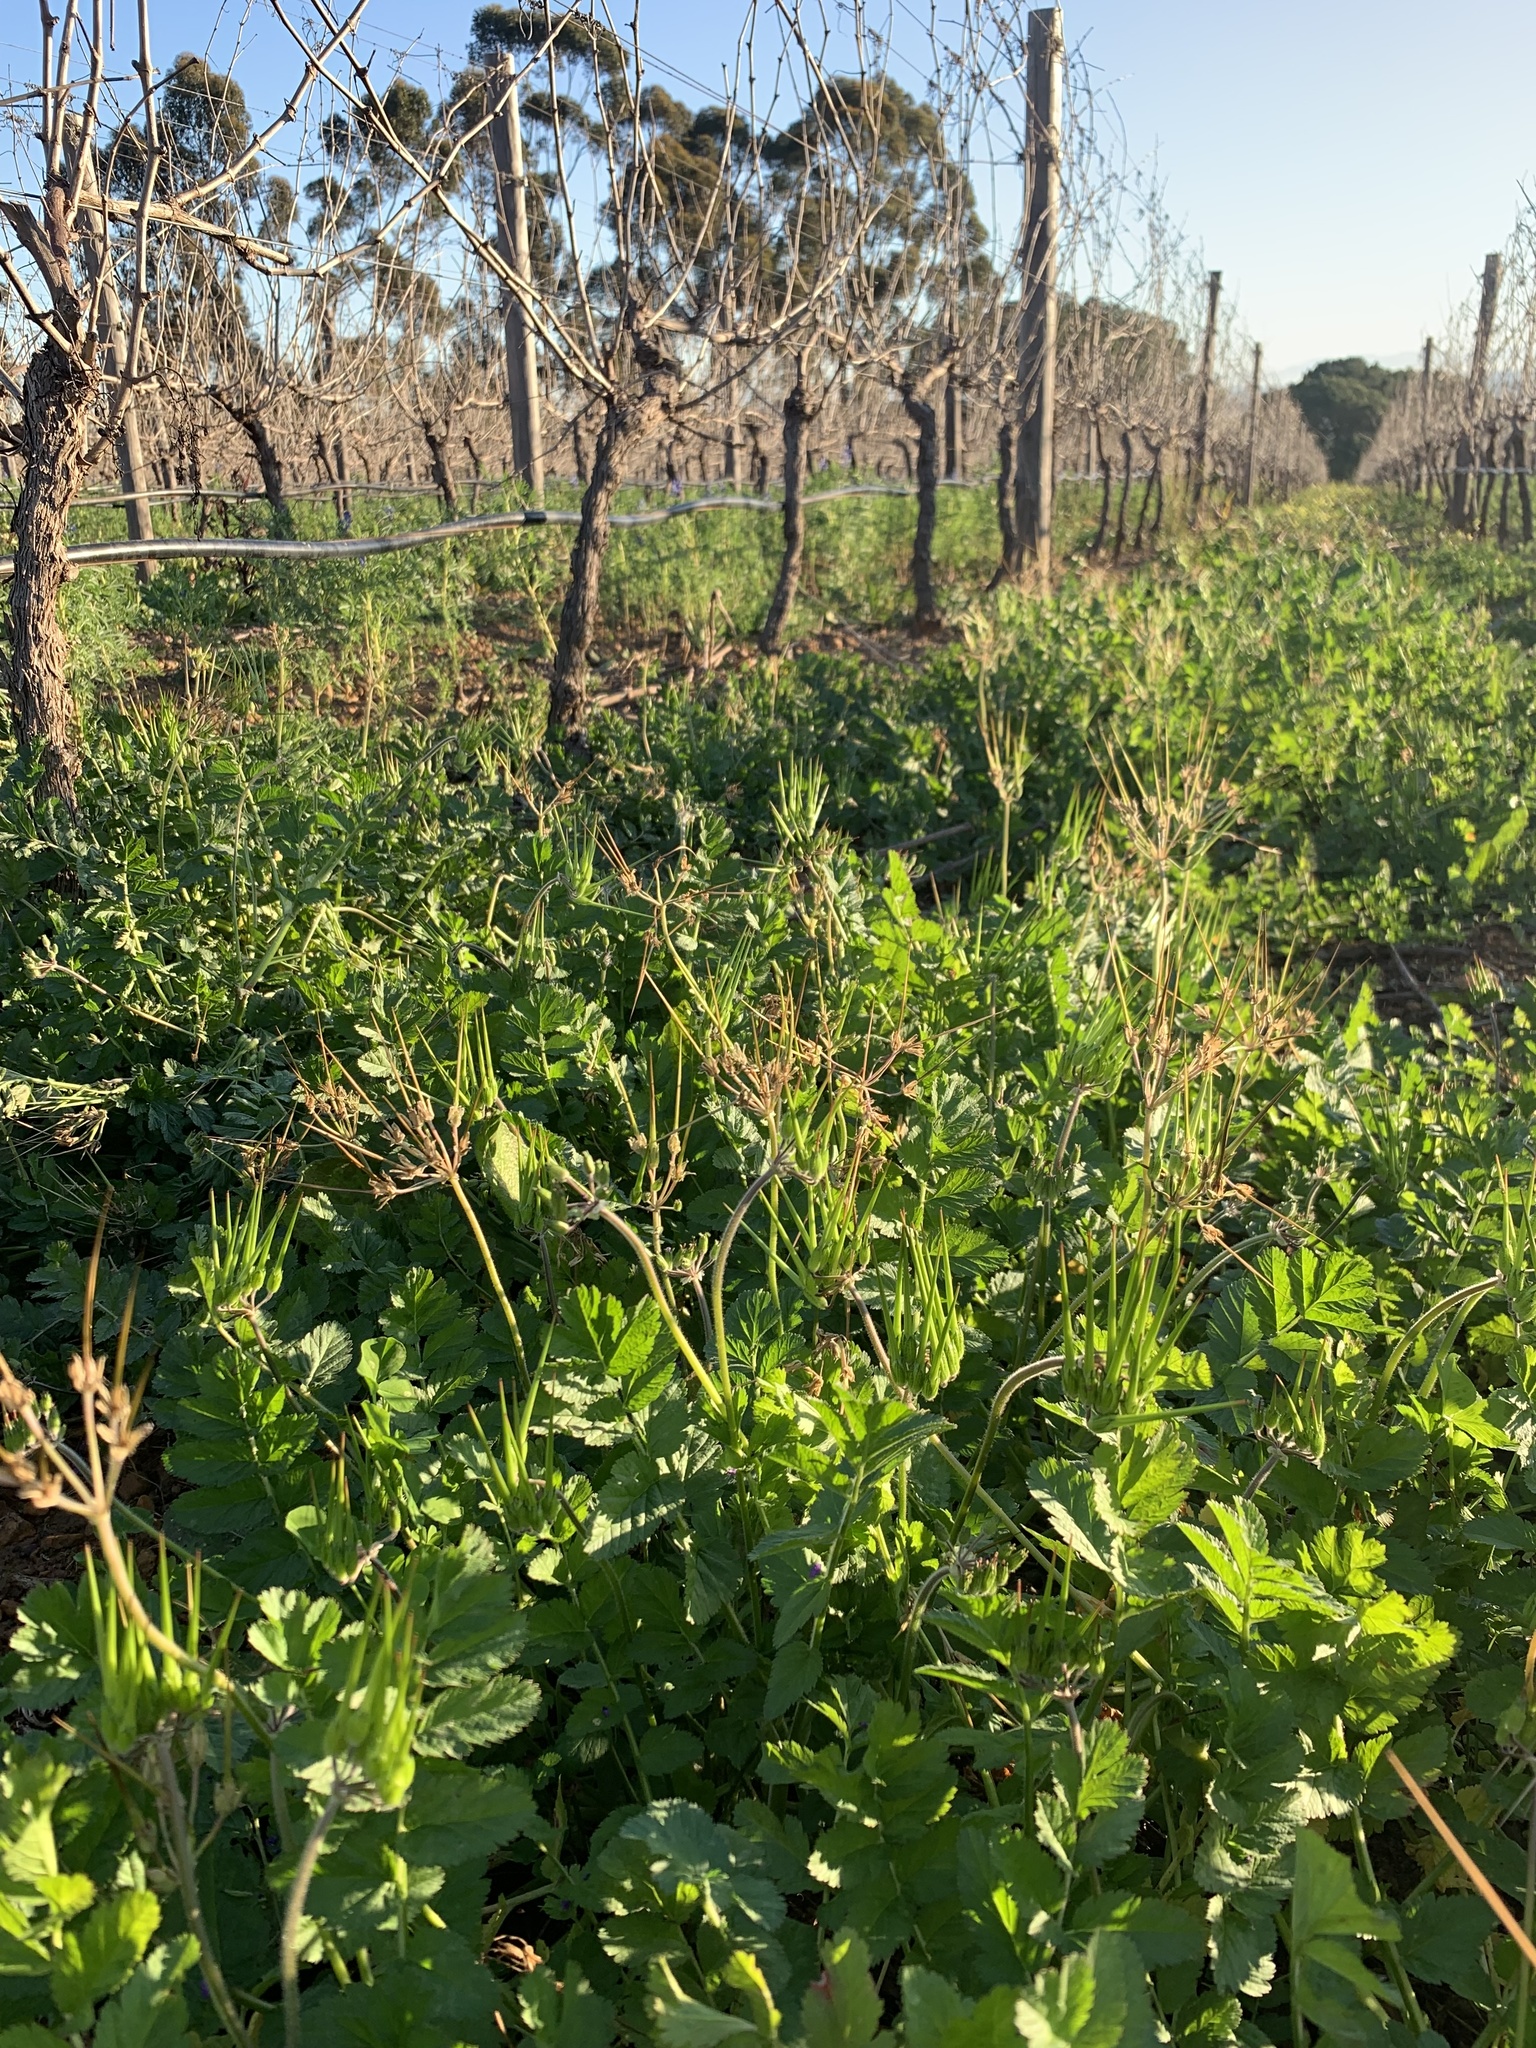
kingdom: Plantae
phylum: Tracheophyta
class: Magnoliopsida
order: Geraniales
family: Geraniaceae
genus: Erodium
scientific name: Erodium moschatum
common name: Musk stork's-bill
